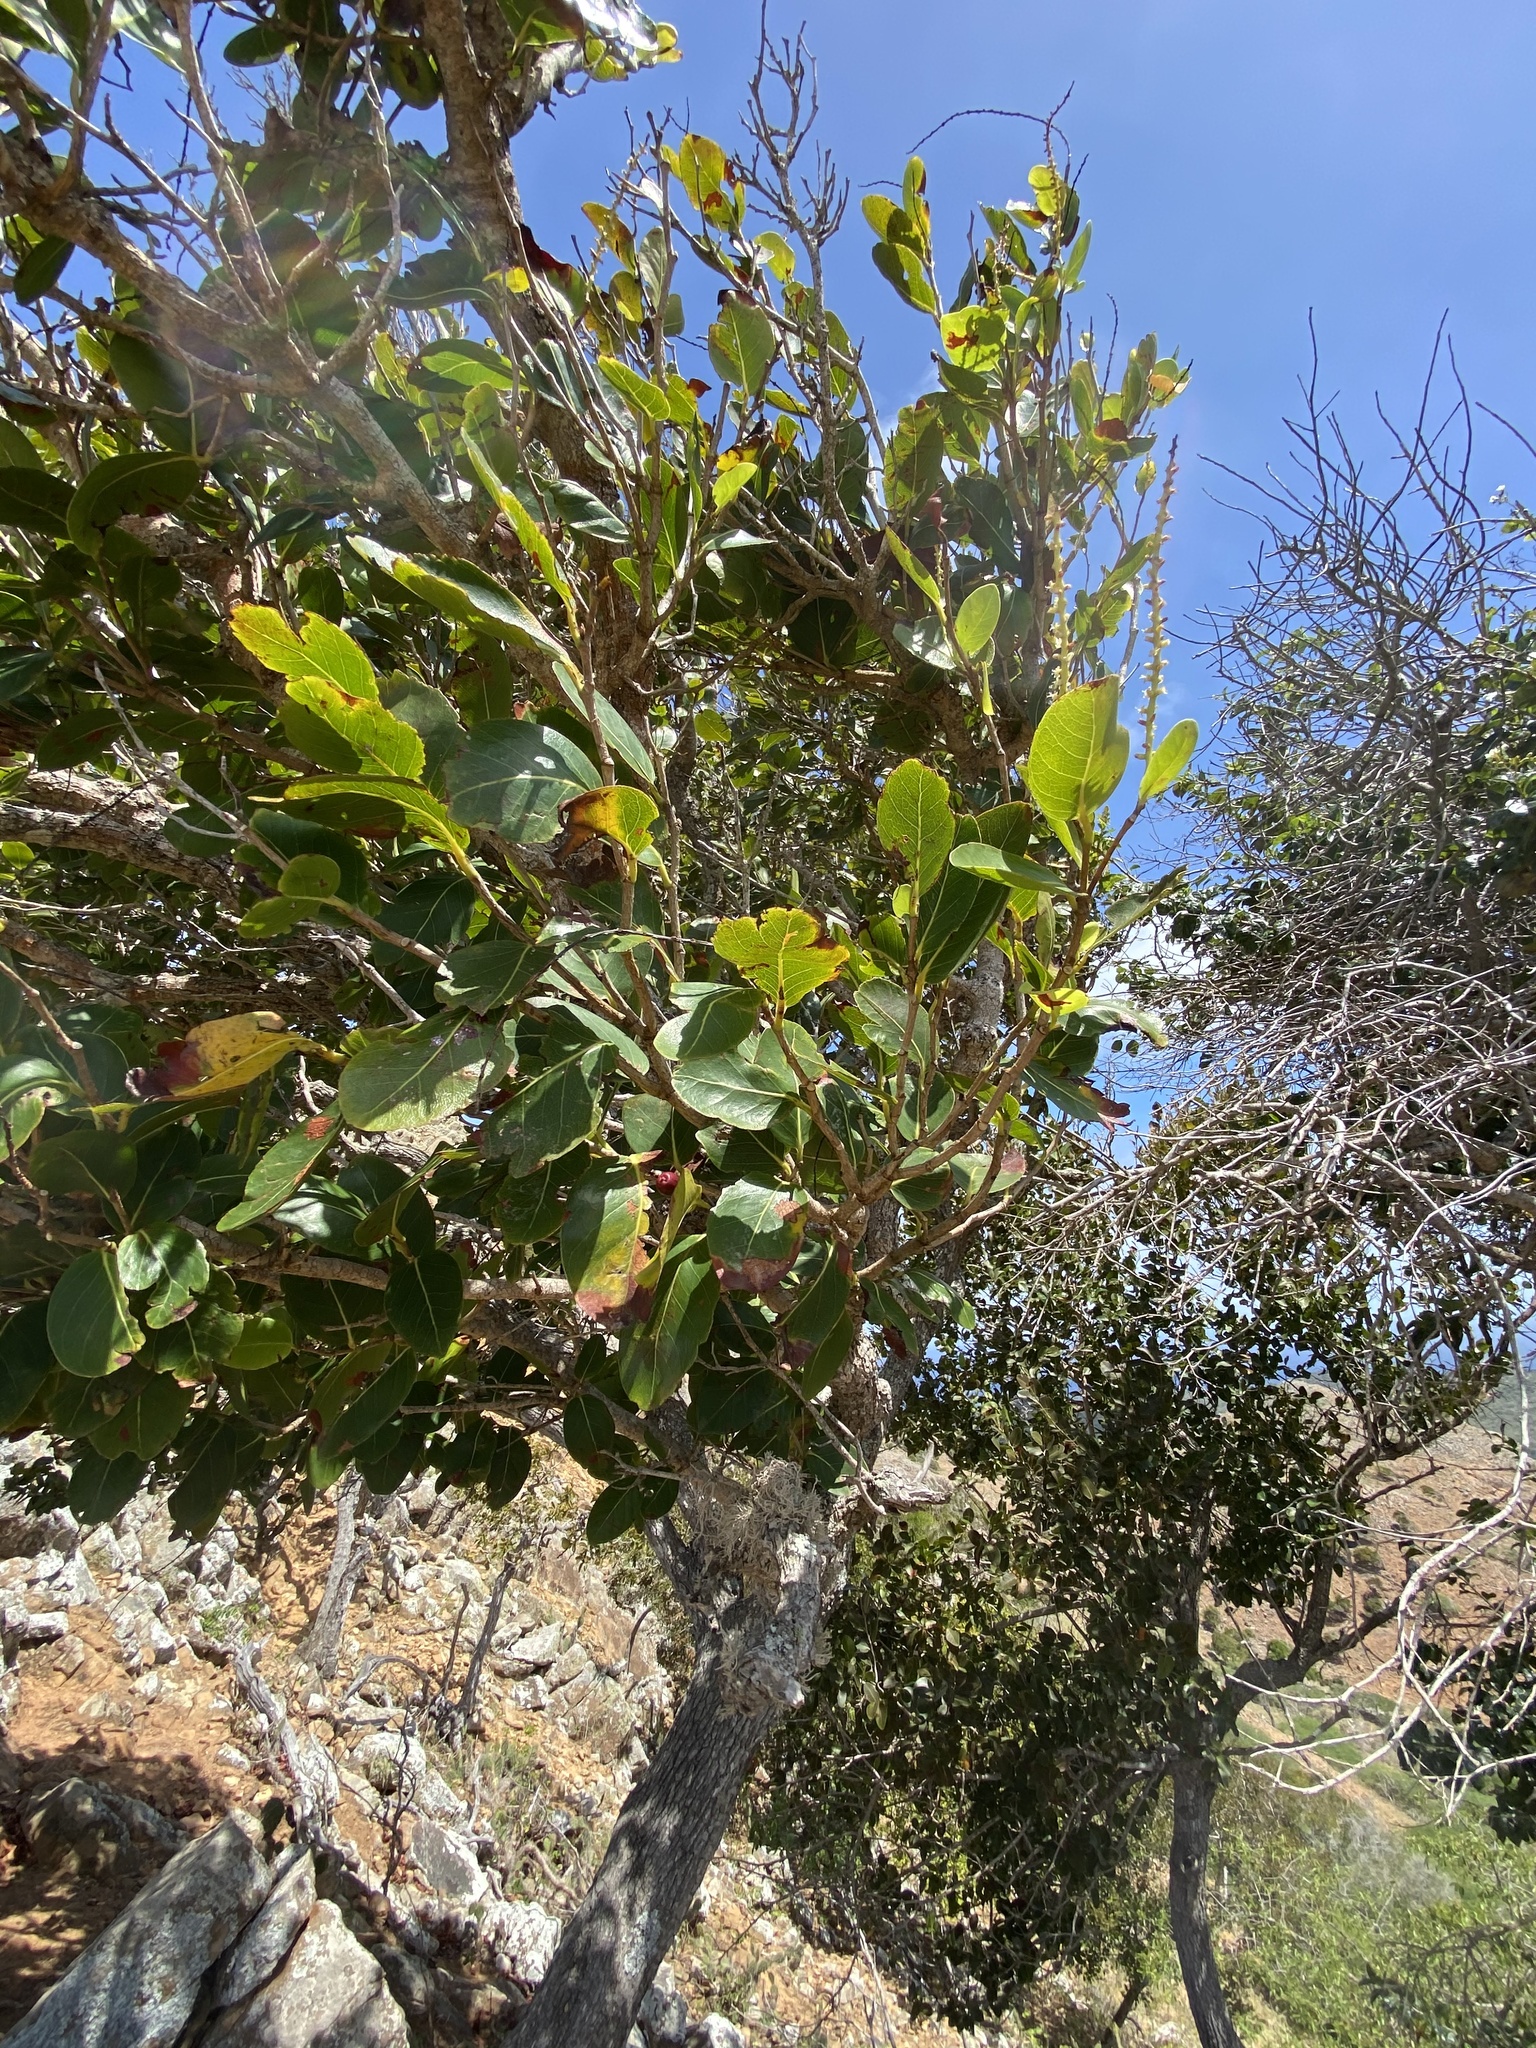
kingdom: Plantae
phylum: Tracheophyta
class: Magnoliopsida
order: Caryophyllales
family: Polygonaceae
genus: Coccoloba
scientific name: Coccoloba swartzii
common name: Red wood
